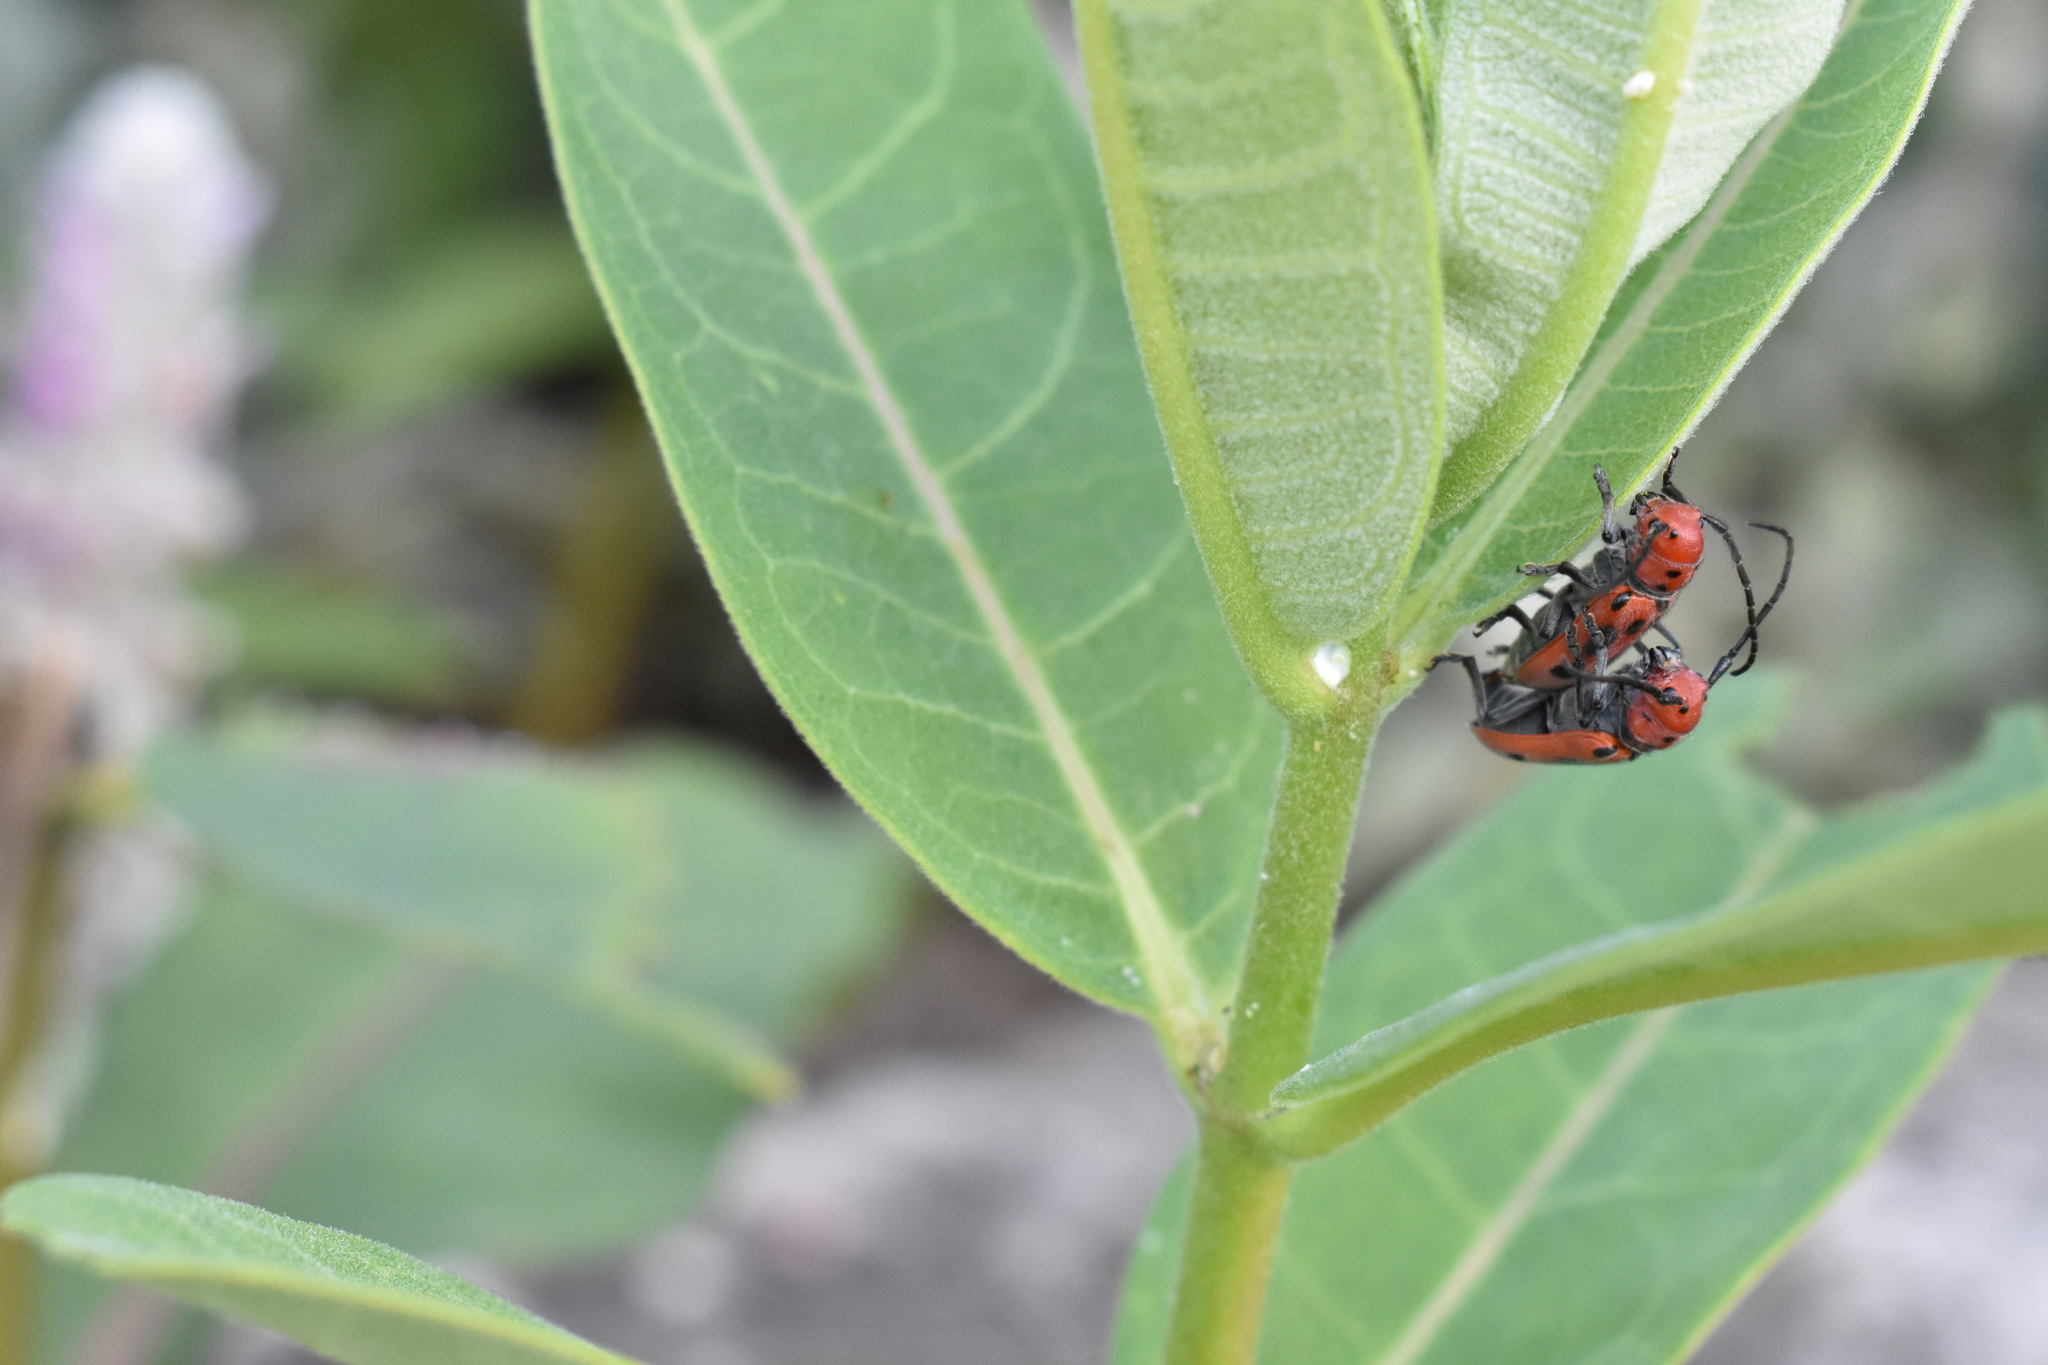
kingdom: Animalia
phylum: Arthropoda
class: Insecta
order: Coleoptera
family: Cerambycidae
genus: Tetraopes
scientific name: Tetraopes tetrophthalmus
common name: Red milkweed beetle
